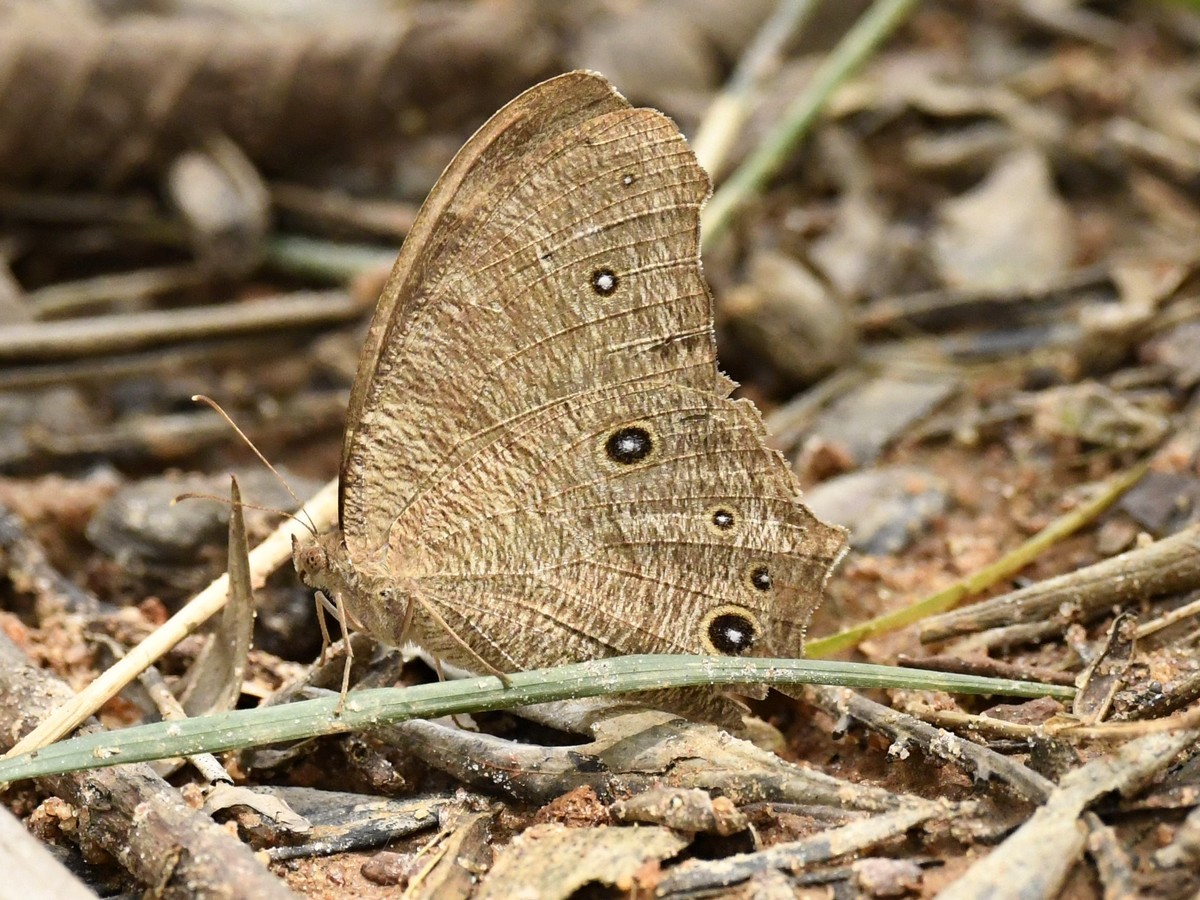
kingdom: Animalia
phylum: Arthropoda
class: Insecta
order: Lepidoptera
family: Nymphalidae
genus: Melanitis
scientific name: Melanitis leda
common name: Twilight brown
